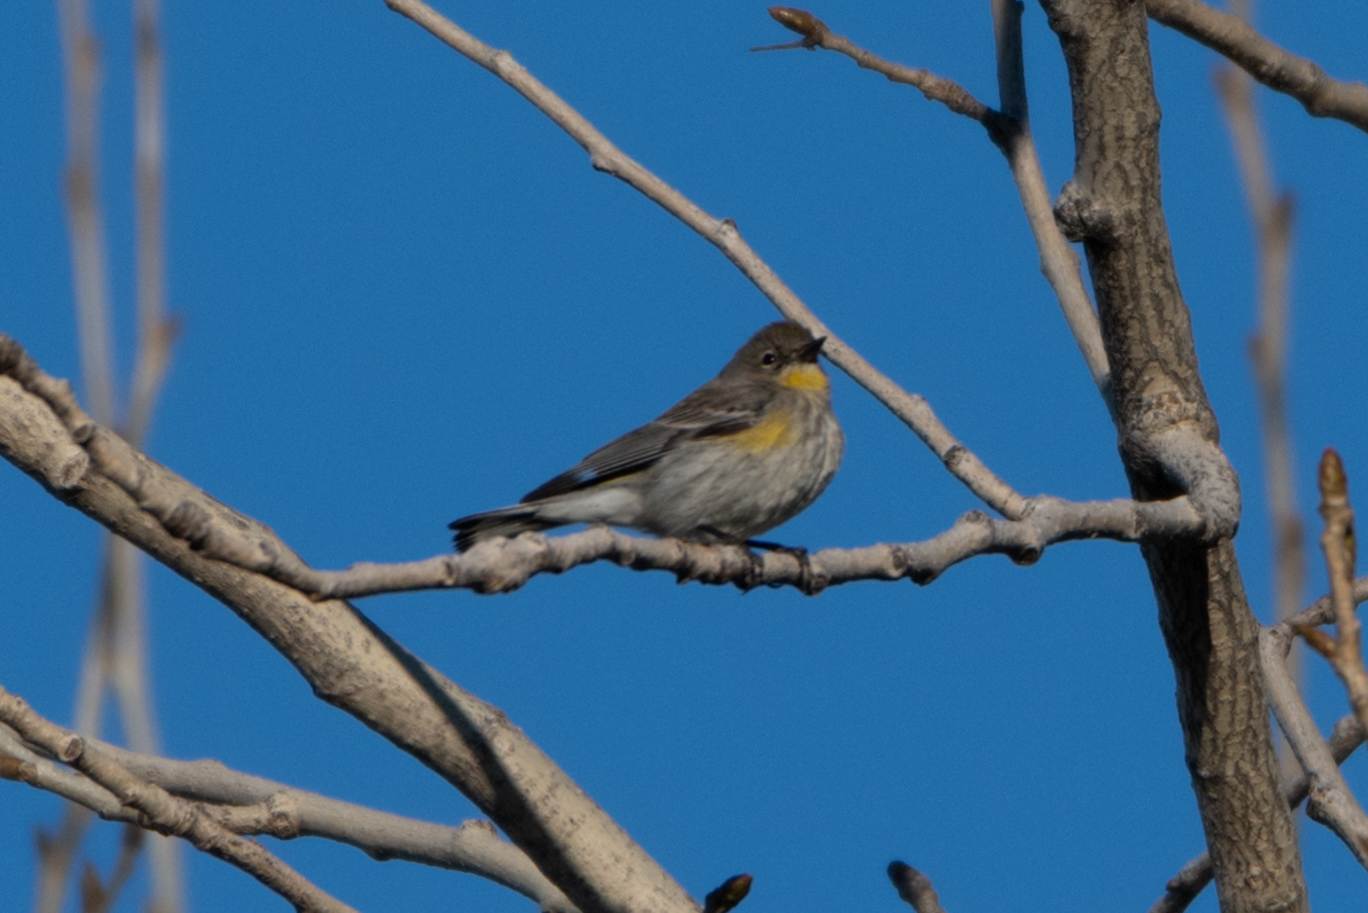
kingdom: Animalia
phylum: Chordata
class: Aves
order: Passeriformes
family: Parulidae
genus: Setophaga
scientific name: Setophaga coronata
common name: Myrtle warbler
